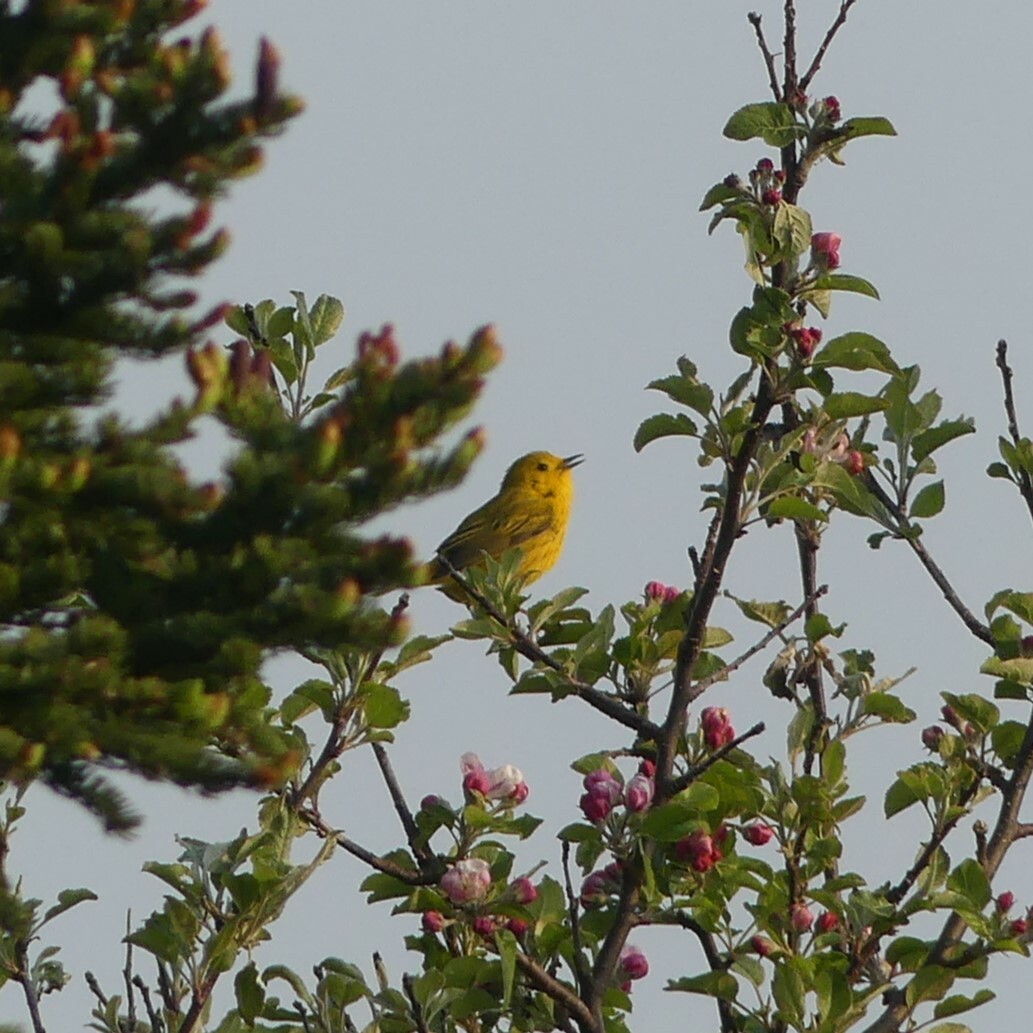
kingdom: Animalia
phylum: Chordata
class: Aves
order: Passeriformes
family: Parulidae
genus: Setophaga
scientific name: Setophaga petechia
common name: Yellow warbler
